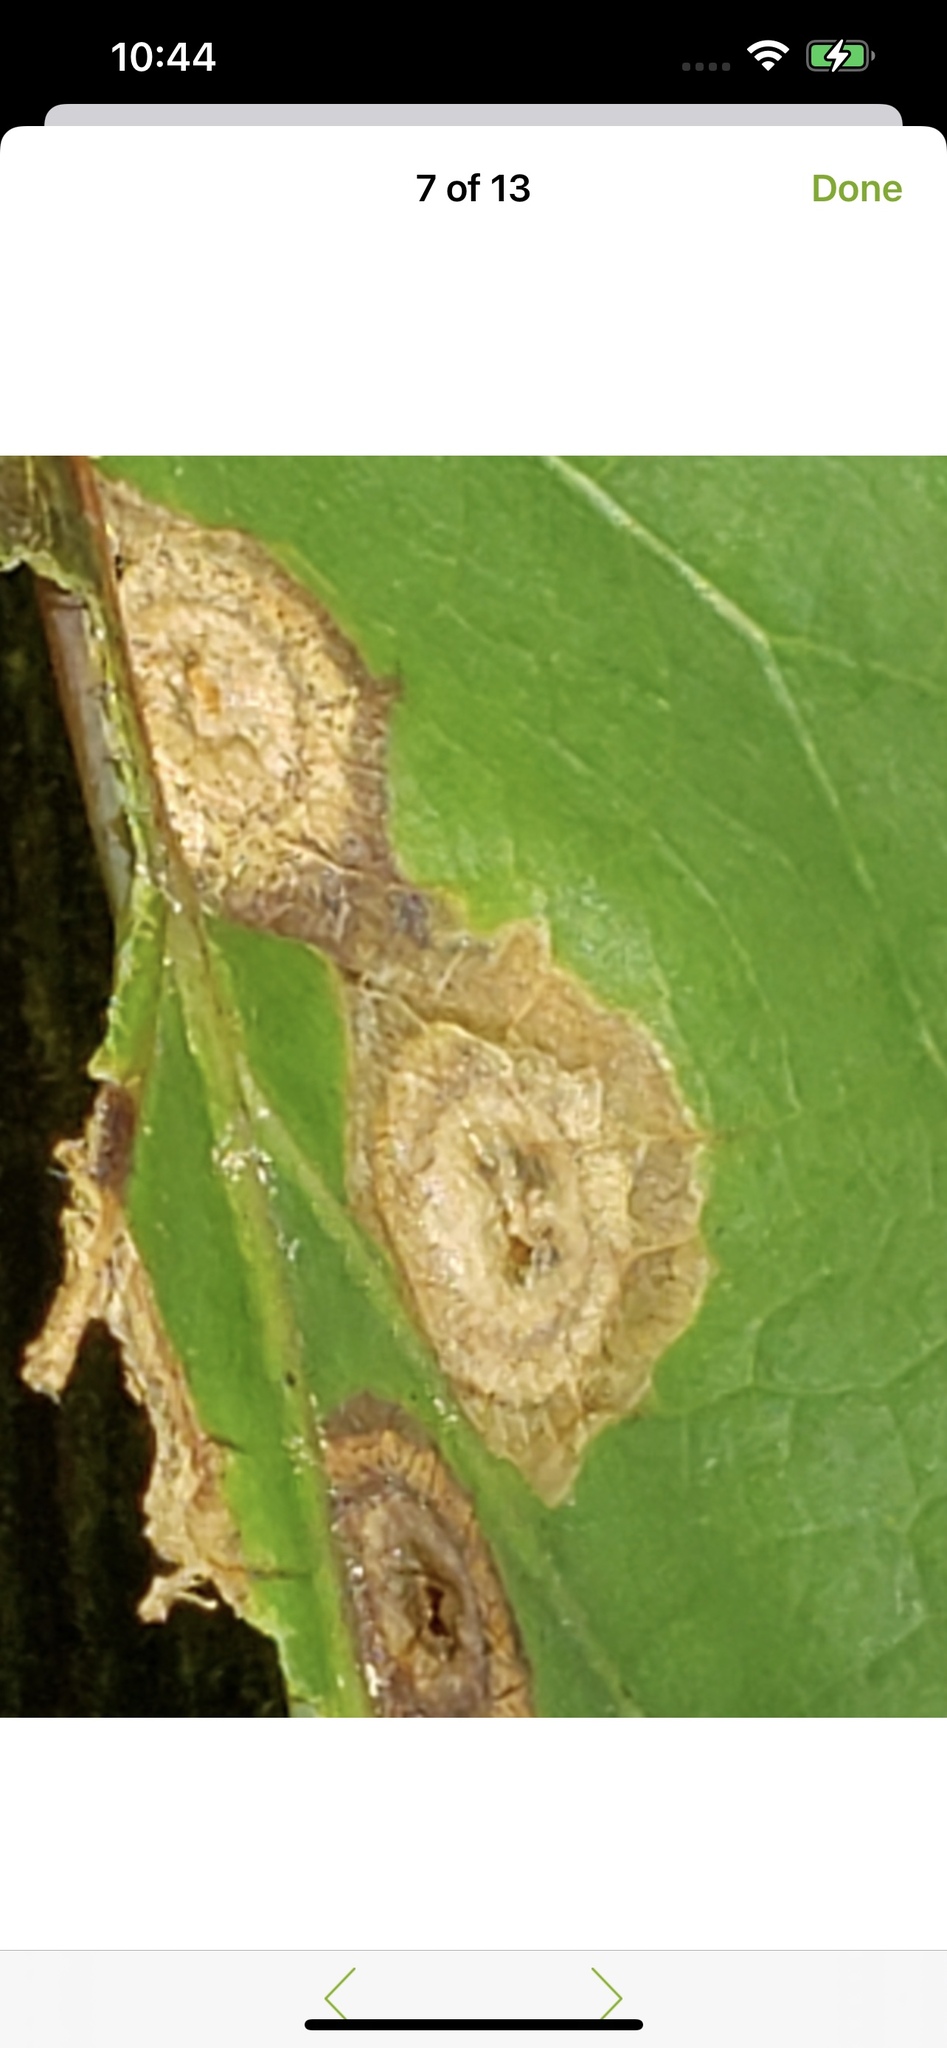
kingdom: Animalia
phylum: Arthropoda
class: Insecta
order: Hymenoptera
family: Cynipidae
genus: Callirhytis
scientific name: Callirhytis
